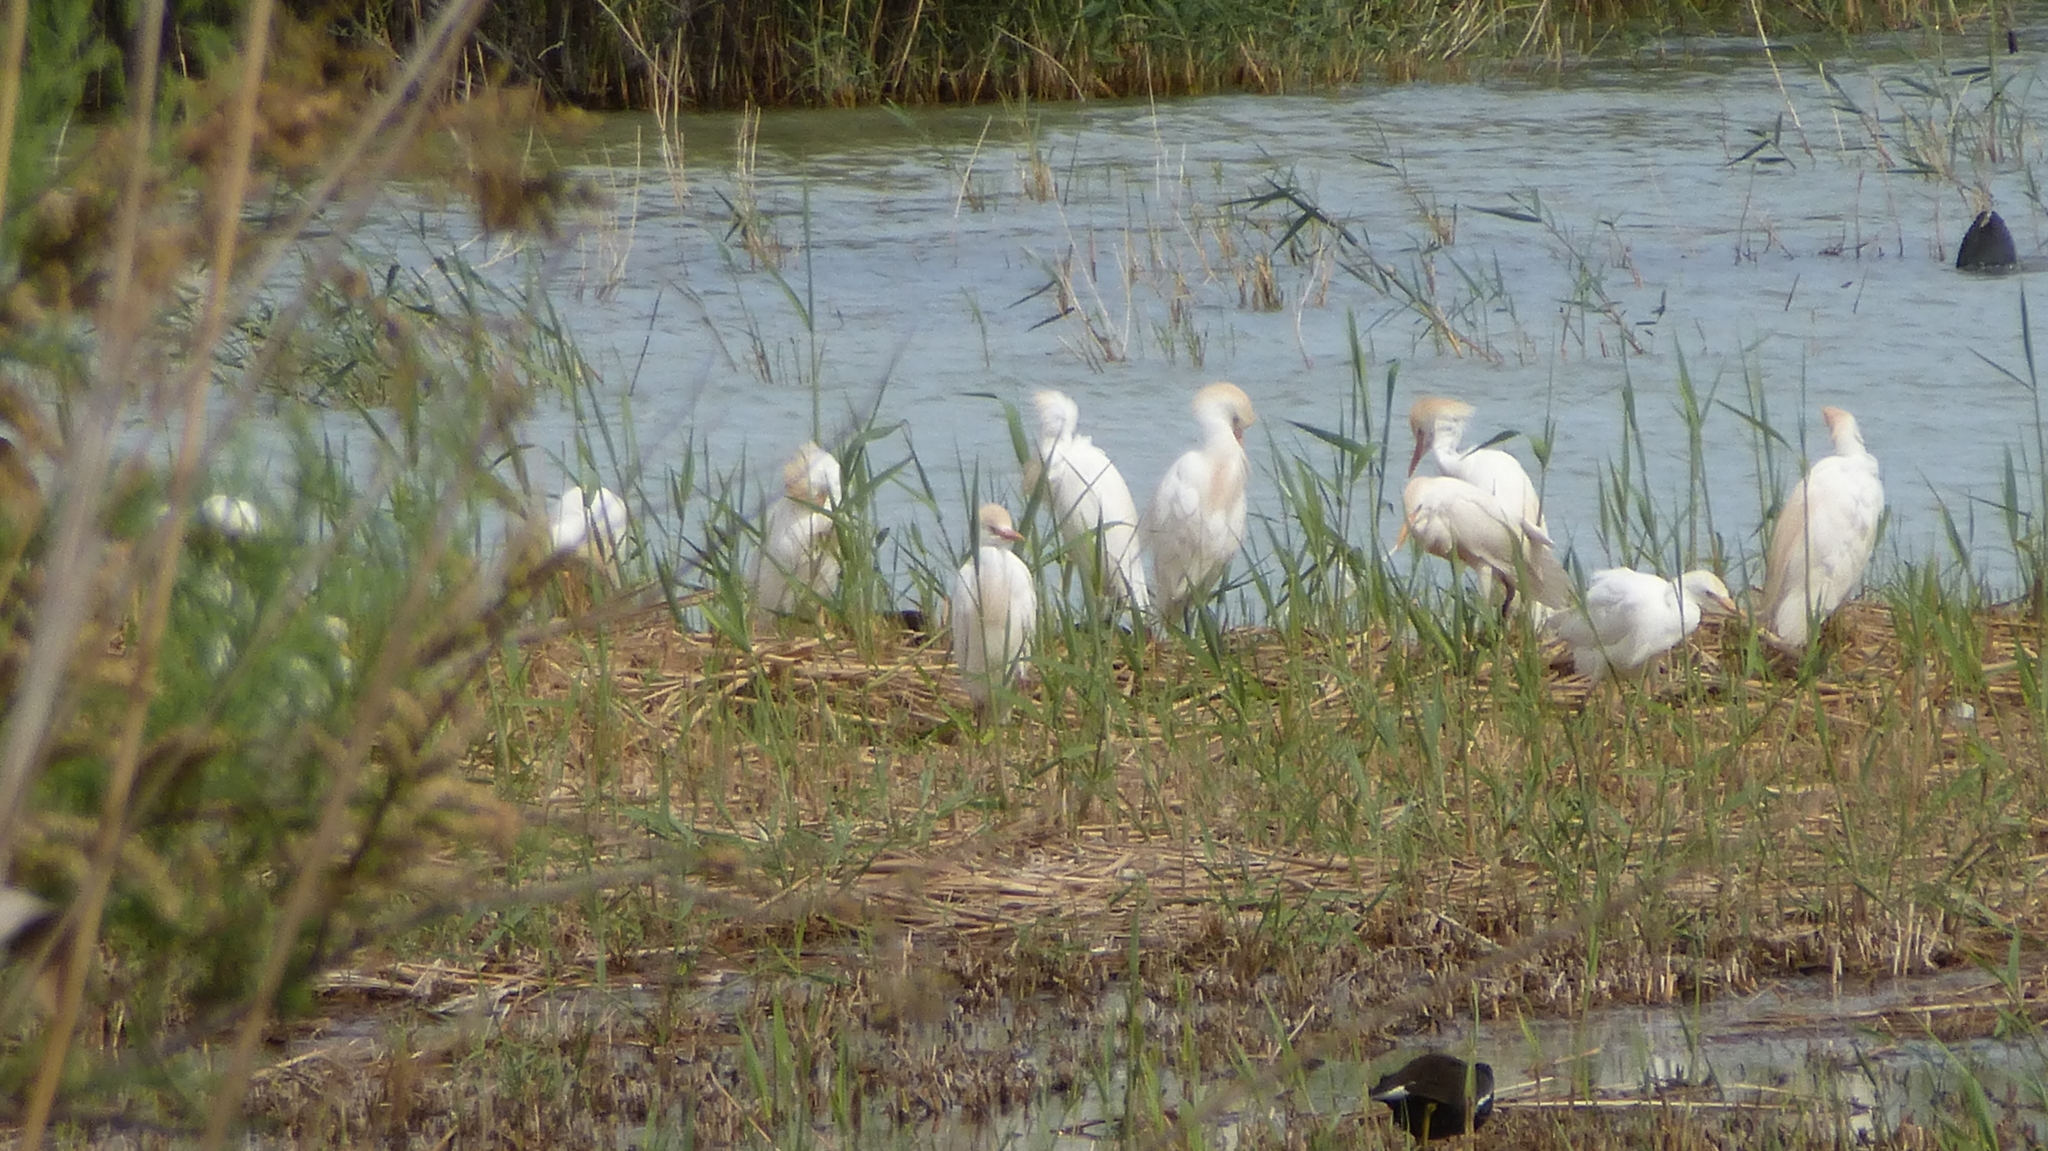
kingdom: Animalia
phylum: Chordata
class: Aves
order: Pelecaniformes
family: Ardeidae
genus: Bubulcus
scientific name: Bubulcus ibis
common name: Cattle egret
